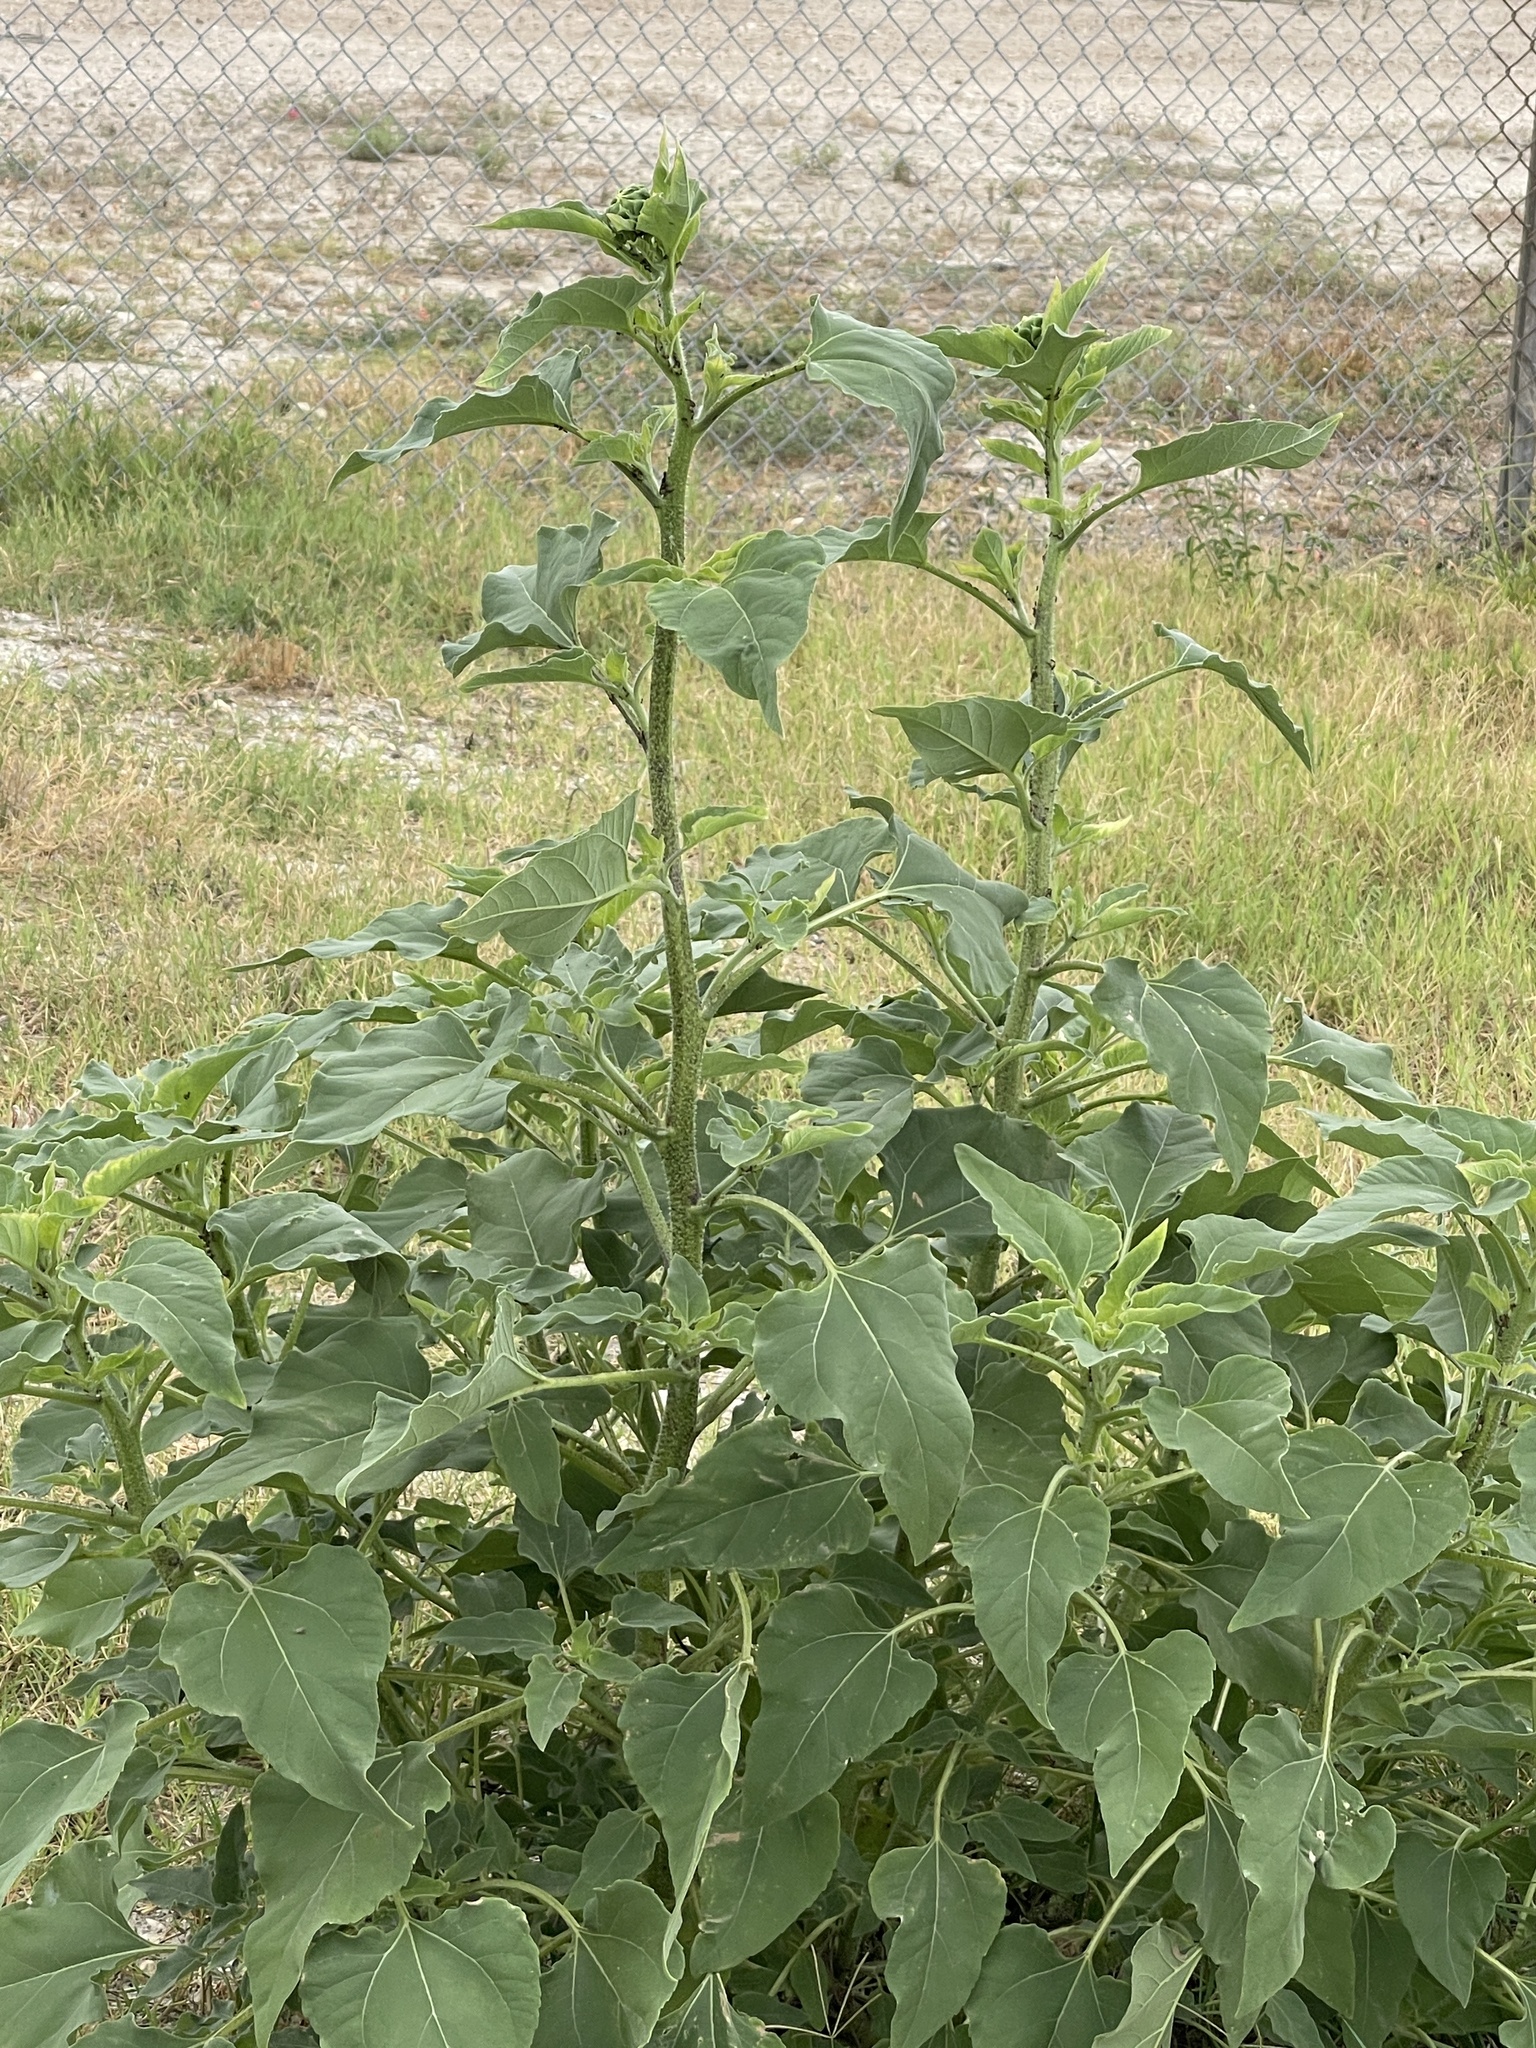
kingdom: Plantae
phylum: Tracheophyta
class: Magnoliopsida
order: Asterales
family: Asteraceae
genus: Helianthus
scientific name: Helianthus annuus
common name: Sunflower
